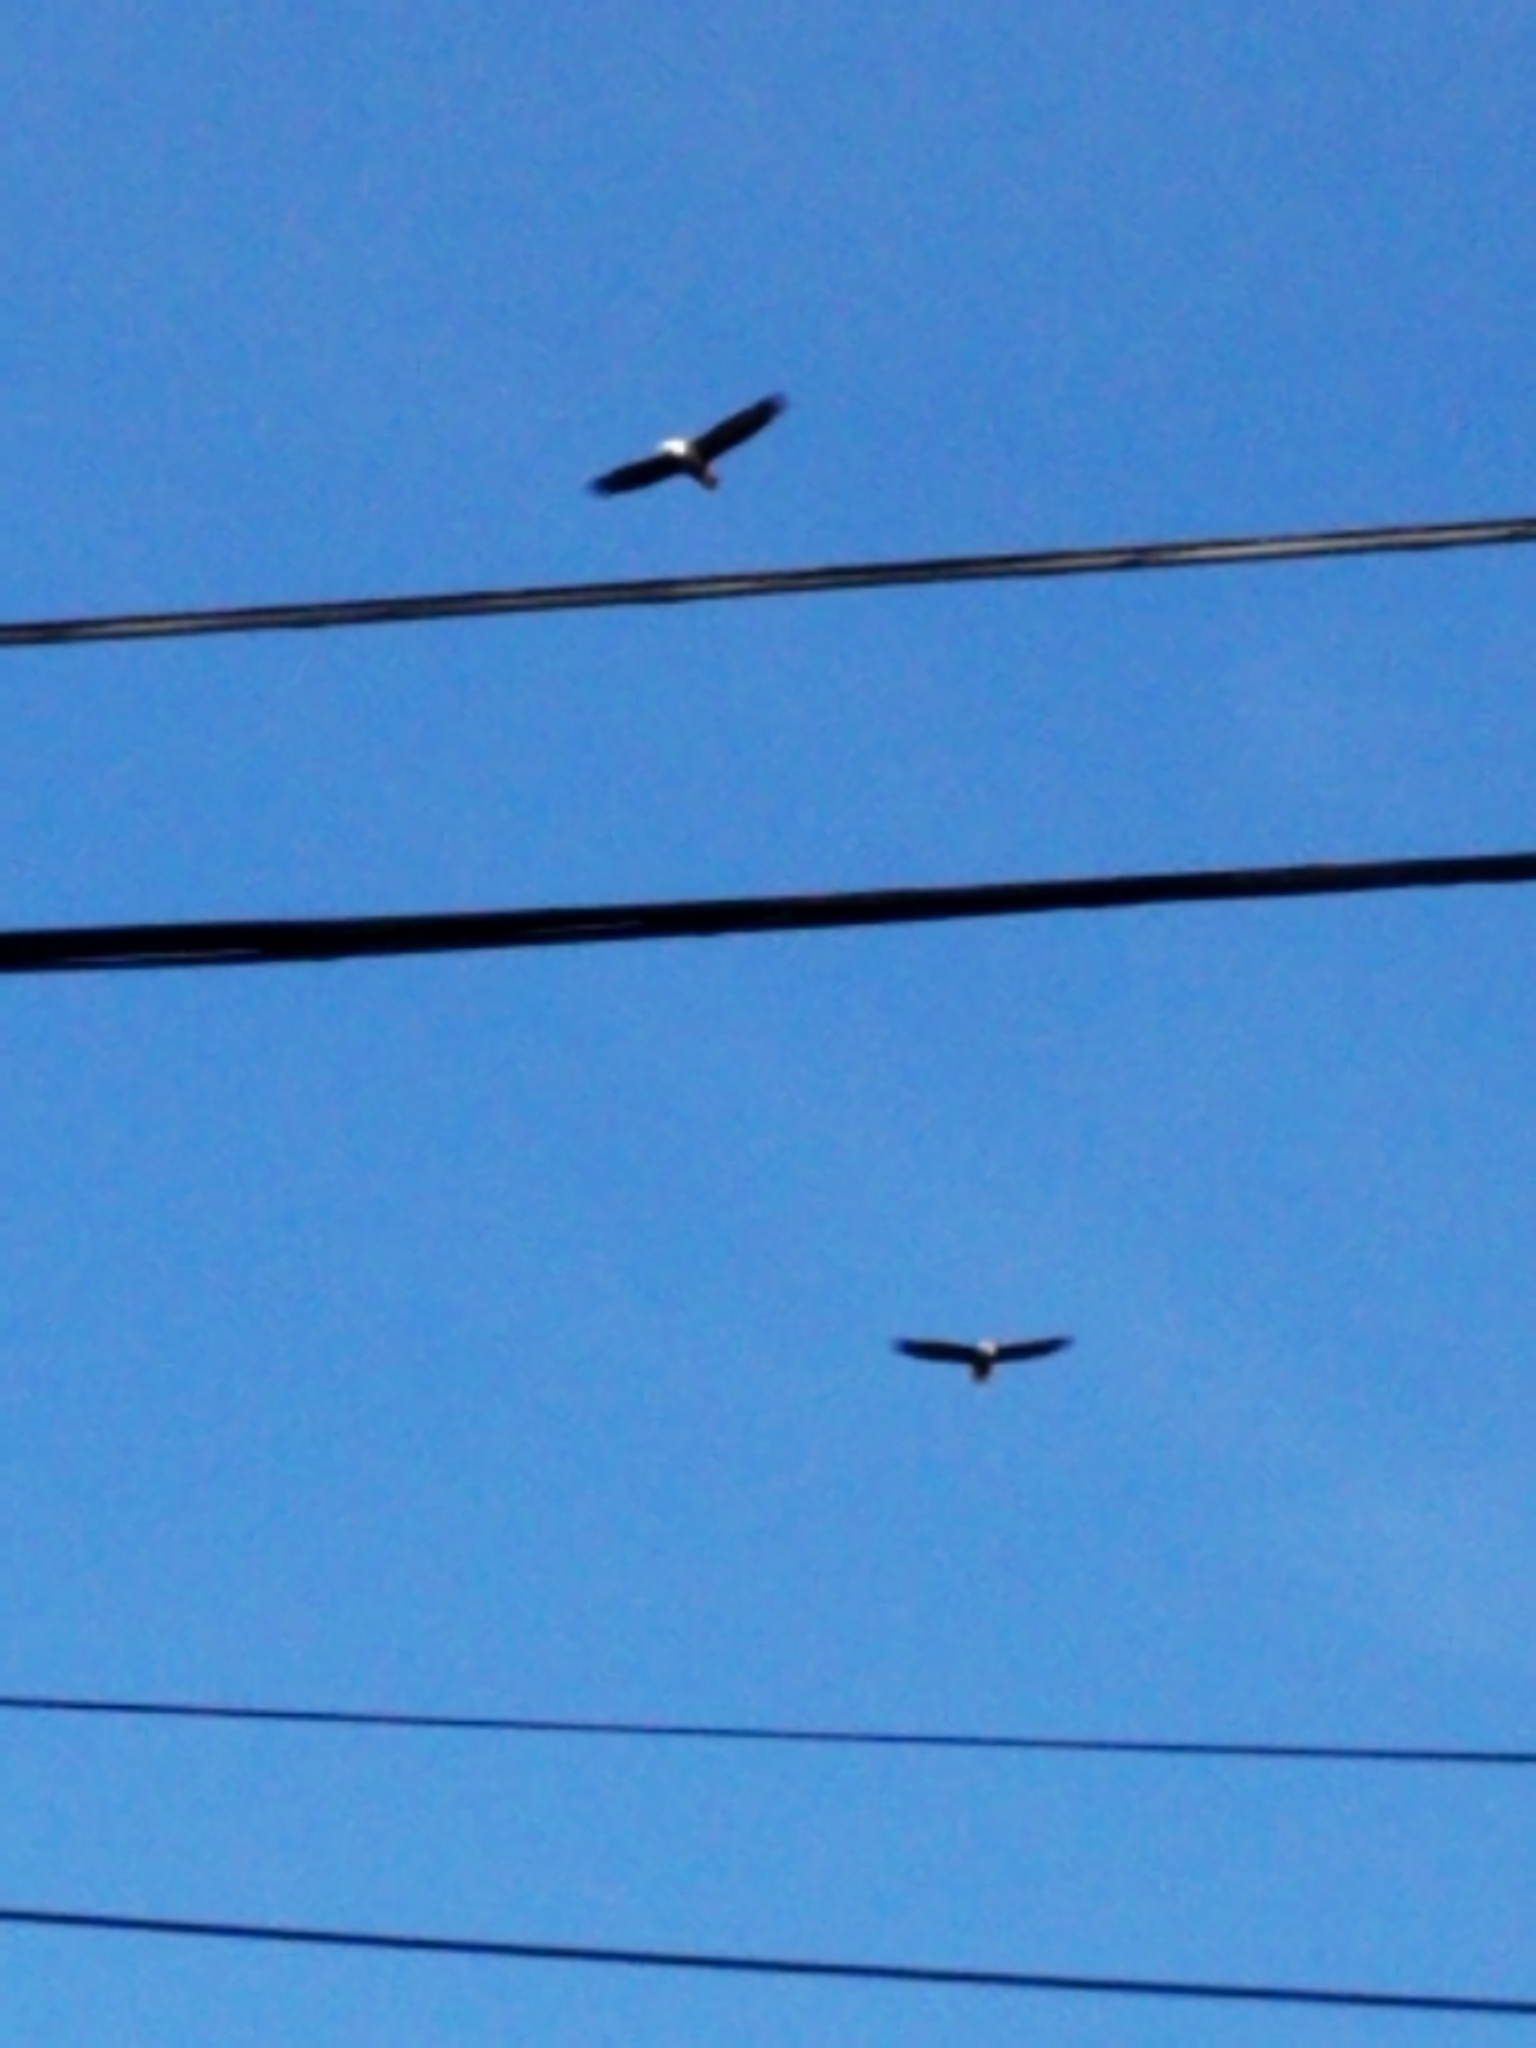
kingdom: Animalia
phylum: Chordata
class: Aves
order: Accipitriformes
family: Accipitridae
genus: Haliaeetus
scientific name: Haliaeetus leucocephalus
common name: Bald eagle
